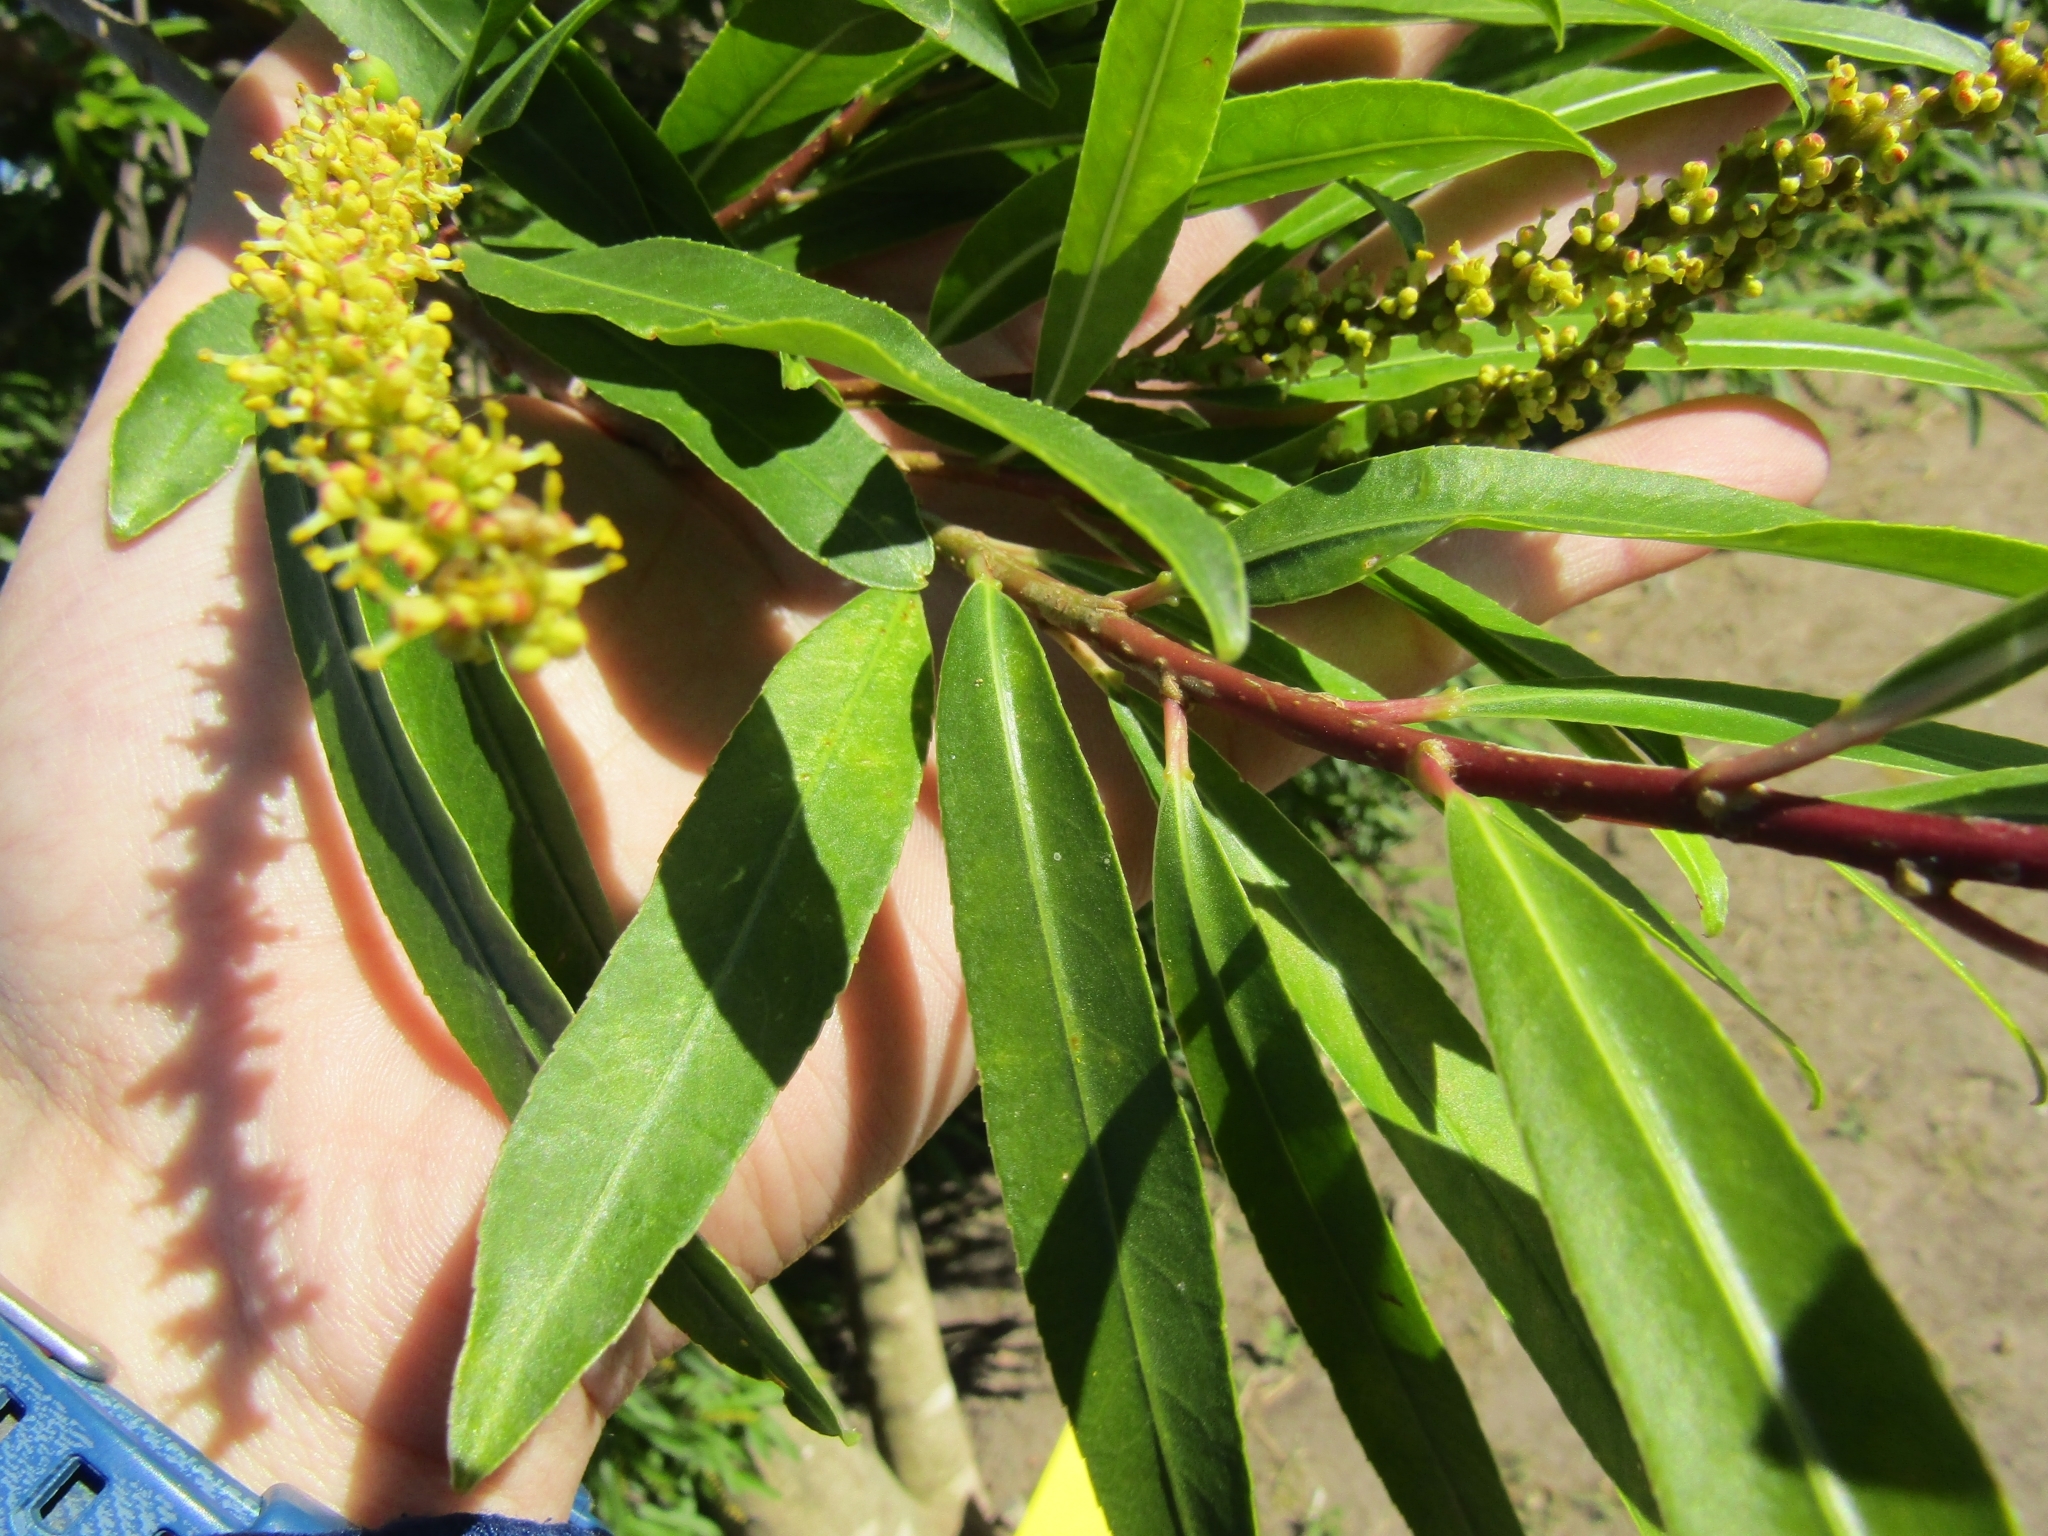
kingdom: Plantae
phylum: Tracheophyta
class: Magnoliopsida
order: Malpighiales
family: Euphorbiaceae
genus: Sapium
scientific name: Sapium haematospermum
